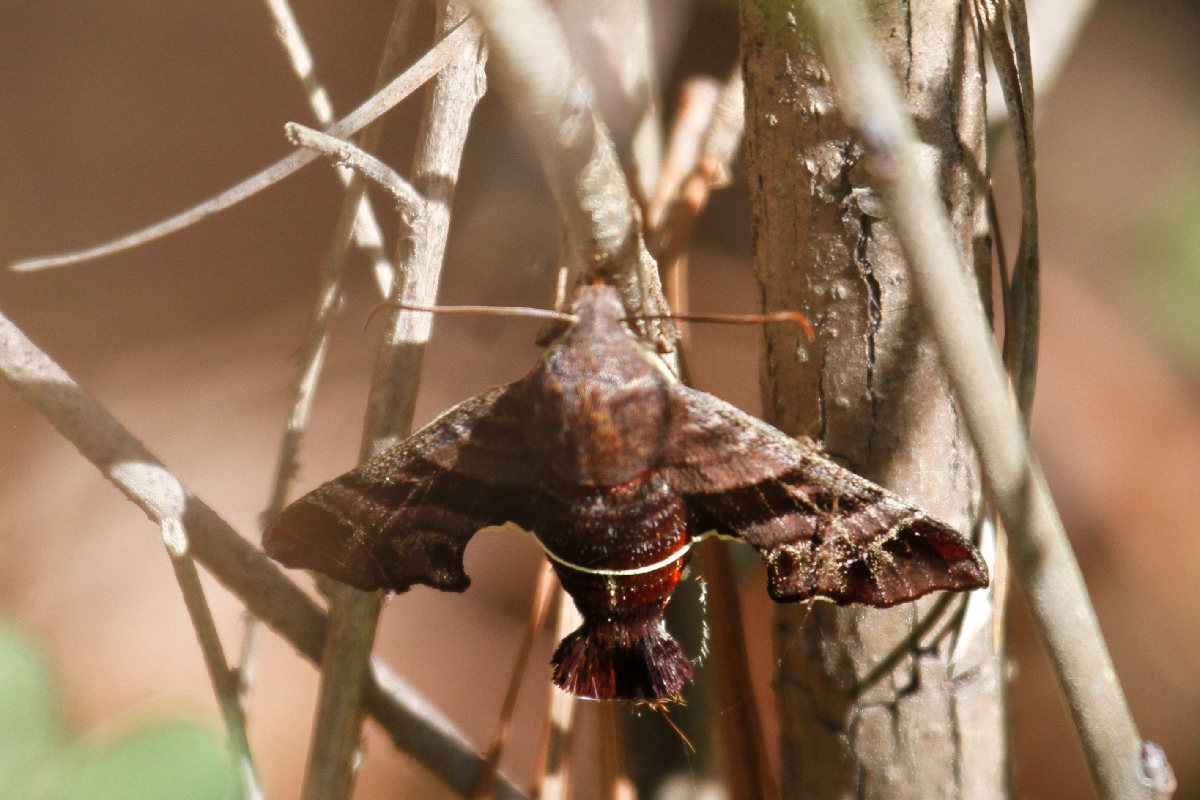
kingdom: Animalia
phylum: Arthropoda
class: Insecta
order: Lepidoptera
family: Sphingidae
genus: Amphion
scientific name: Amphion floridensis
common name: Nessus sphinx
